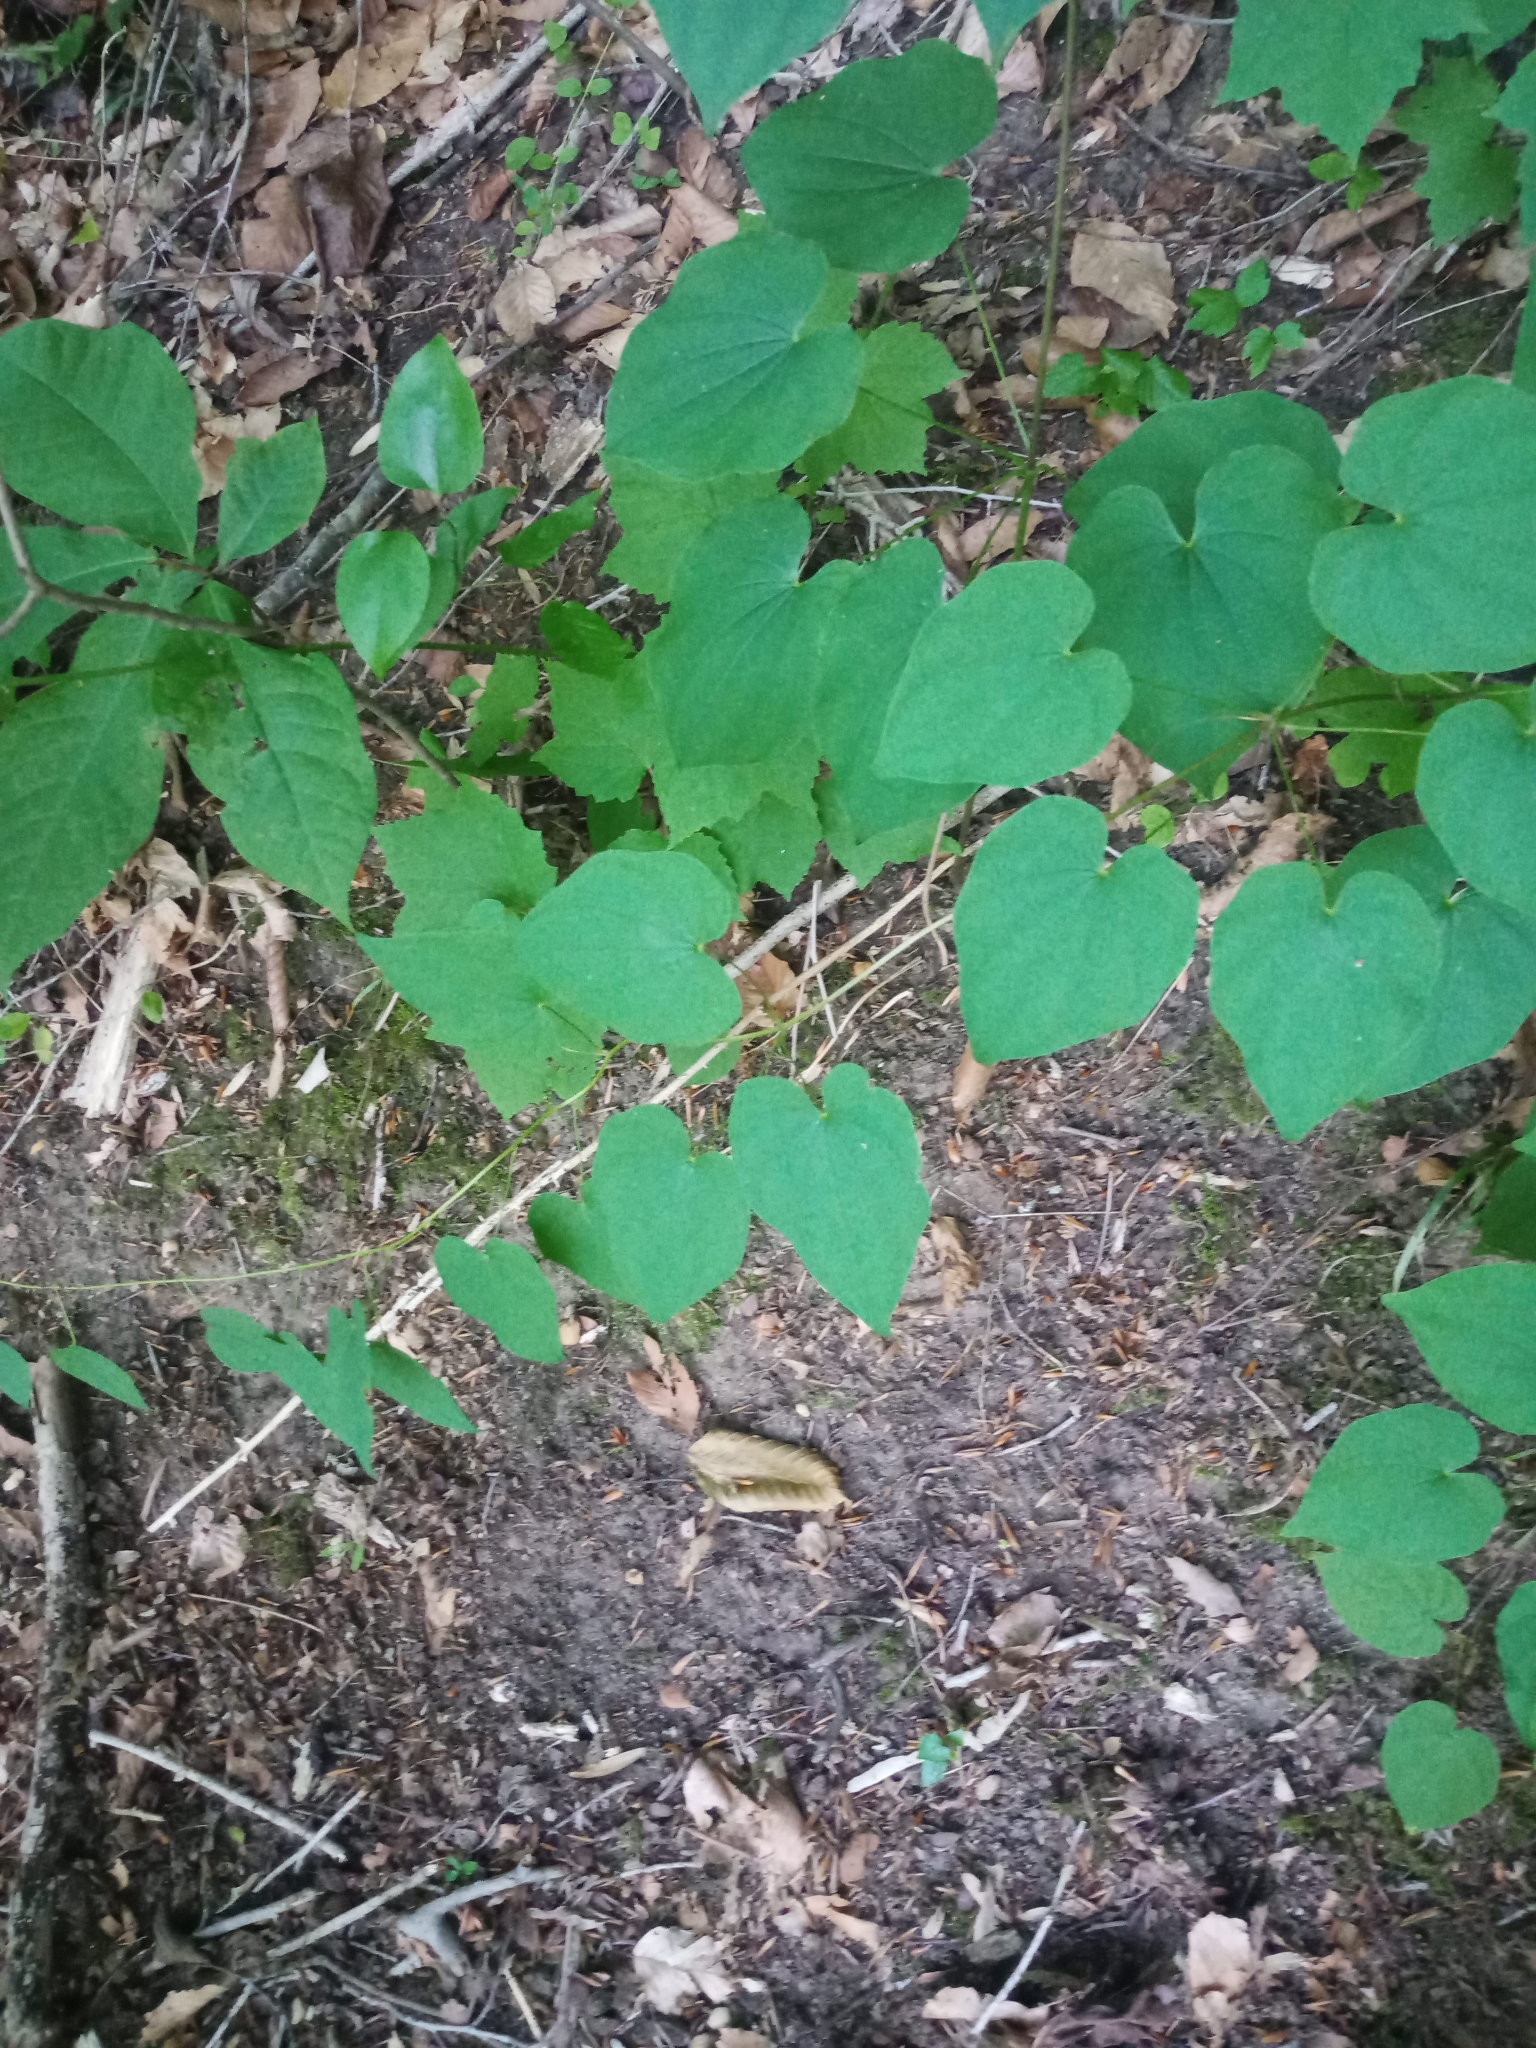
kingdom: Plantae
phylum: Tracheophyta
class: Liliopsida
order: Dioscoreales
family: Dioscoreaceae
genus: Dioscorea
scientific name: Dioscorea villosa
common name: Wild yam
